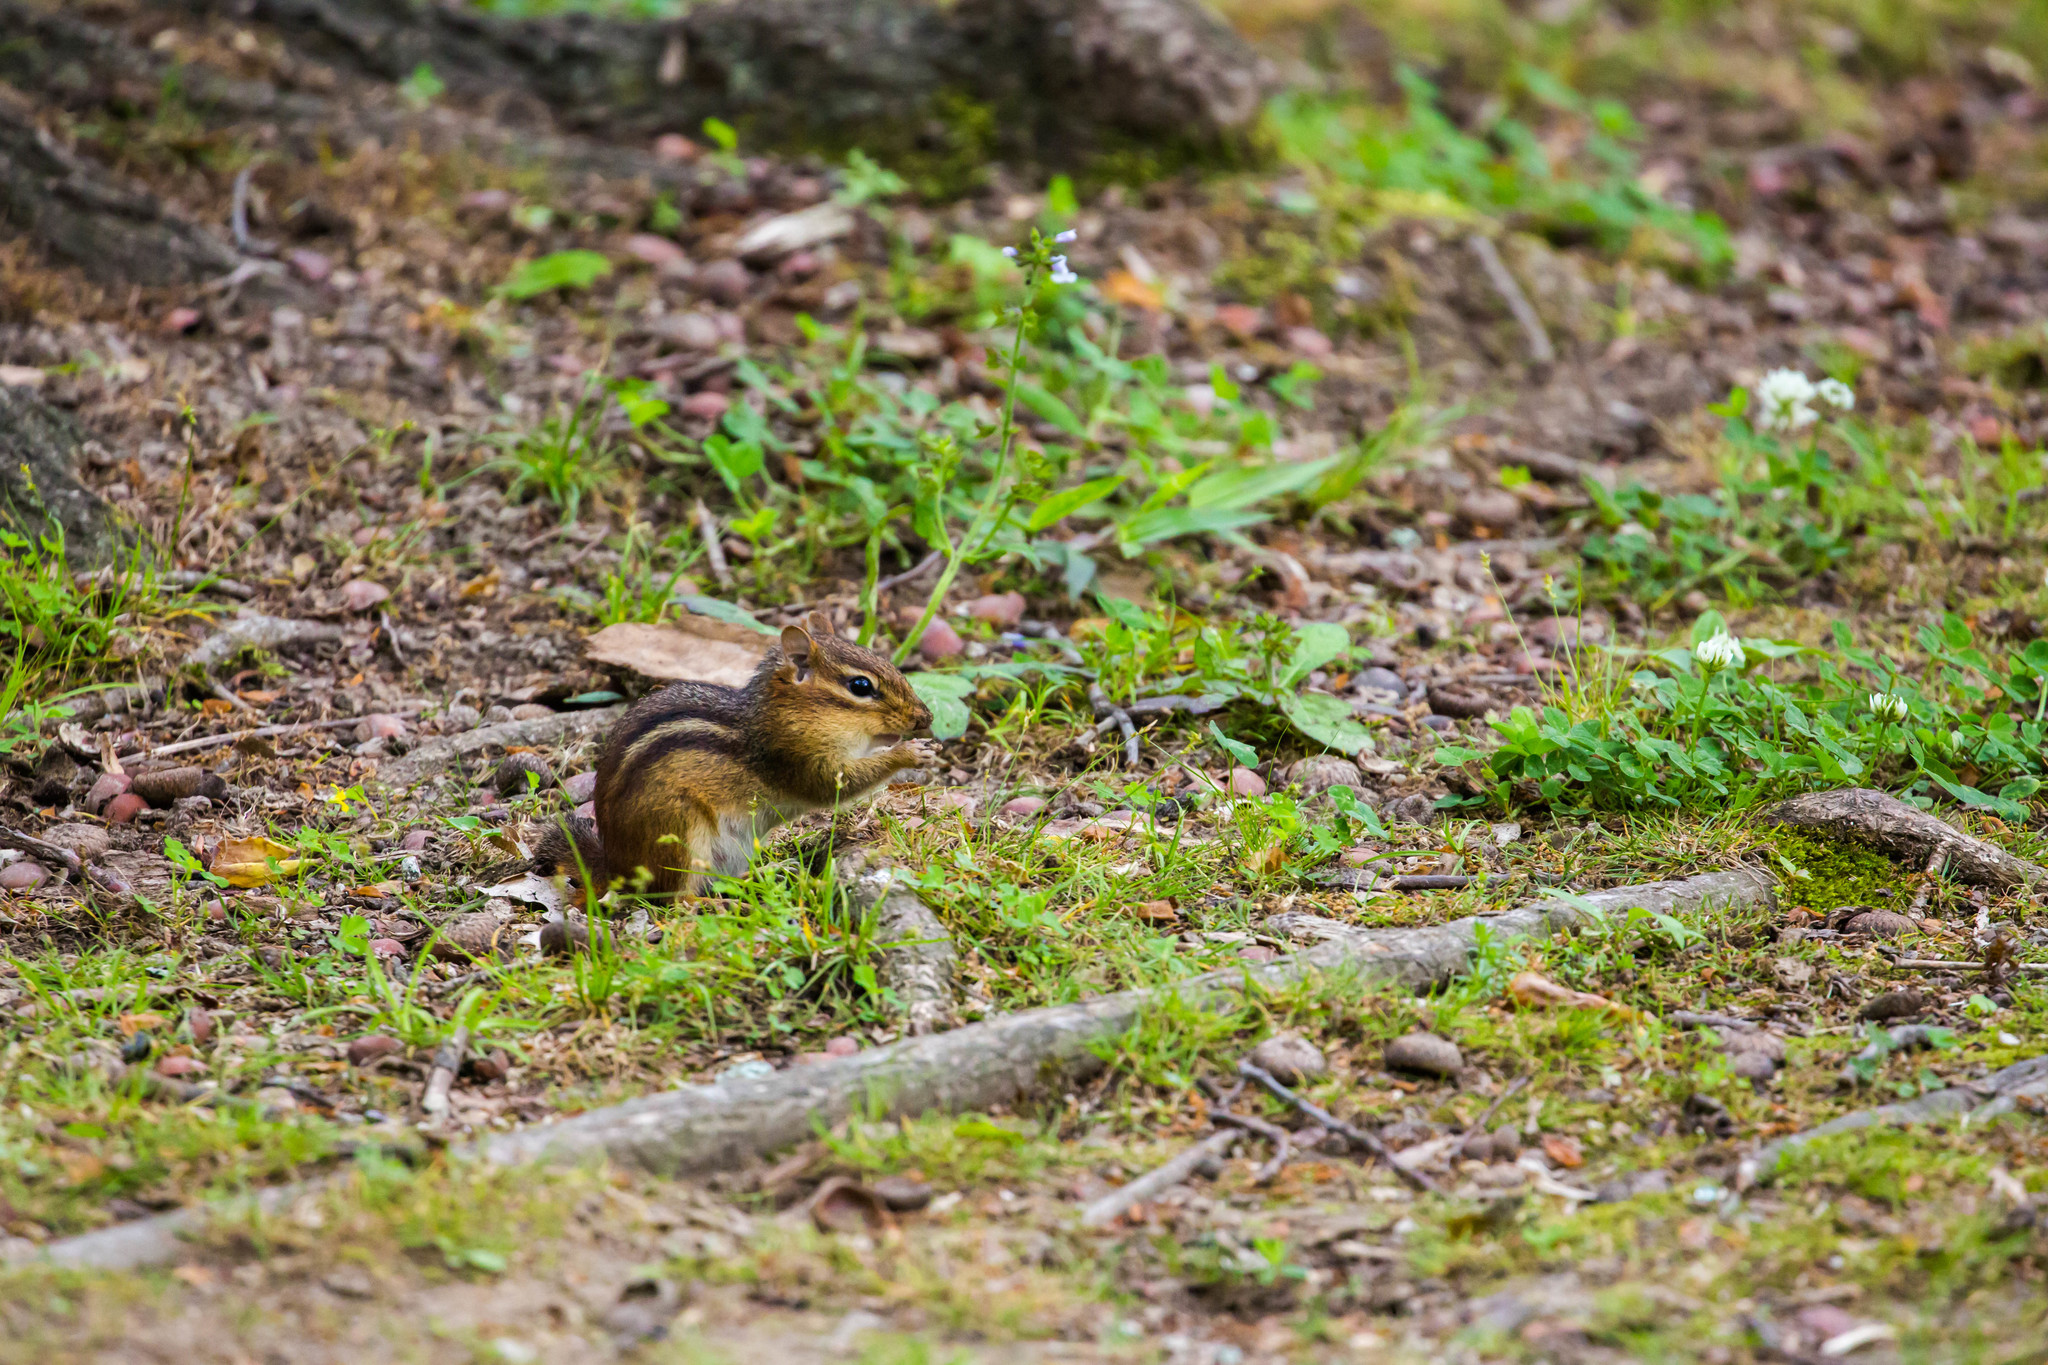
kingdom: Animalia
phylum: Chordata
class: Mammalia
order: Rodentia
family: Sciuridae
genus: Tamias
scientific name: Tamias striatus
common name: Eastern chipmunk
